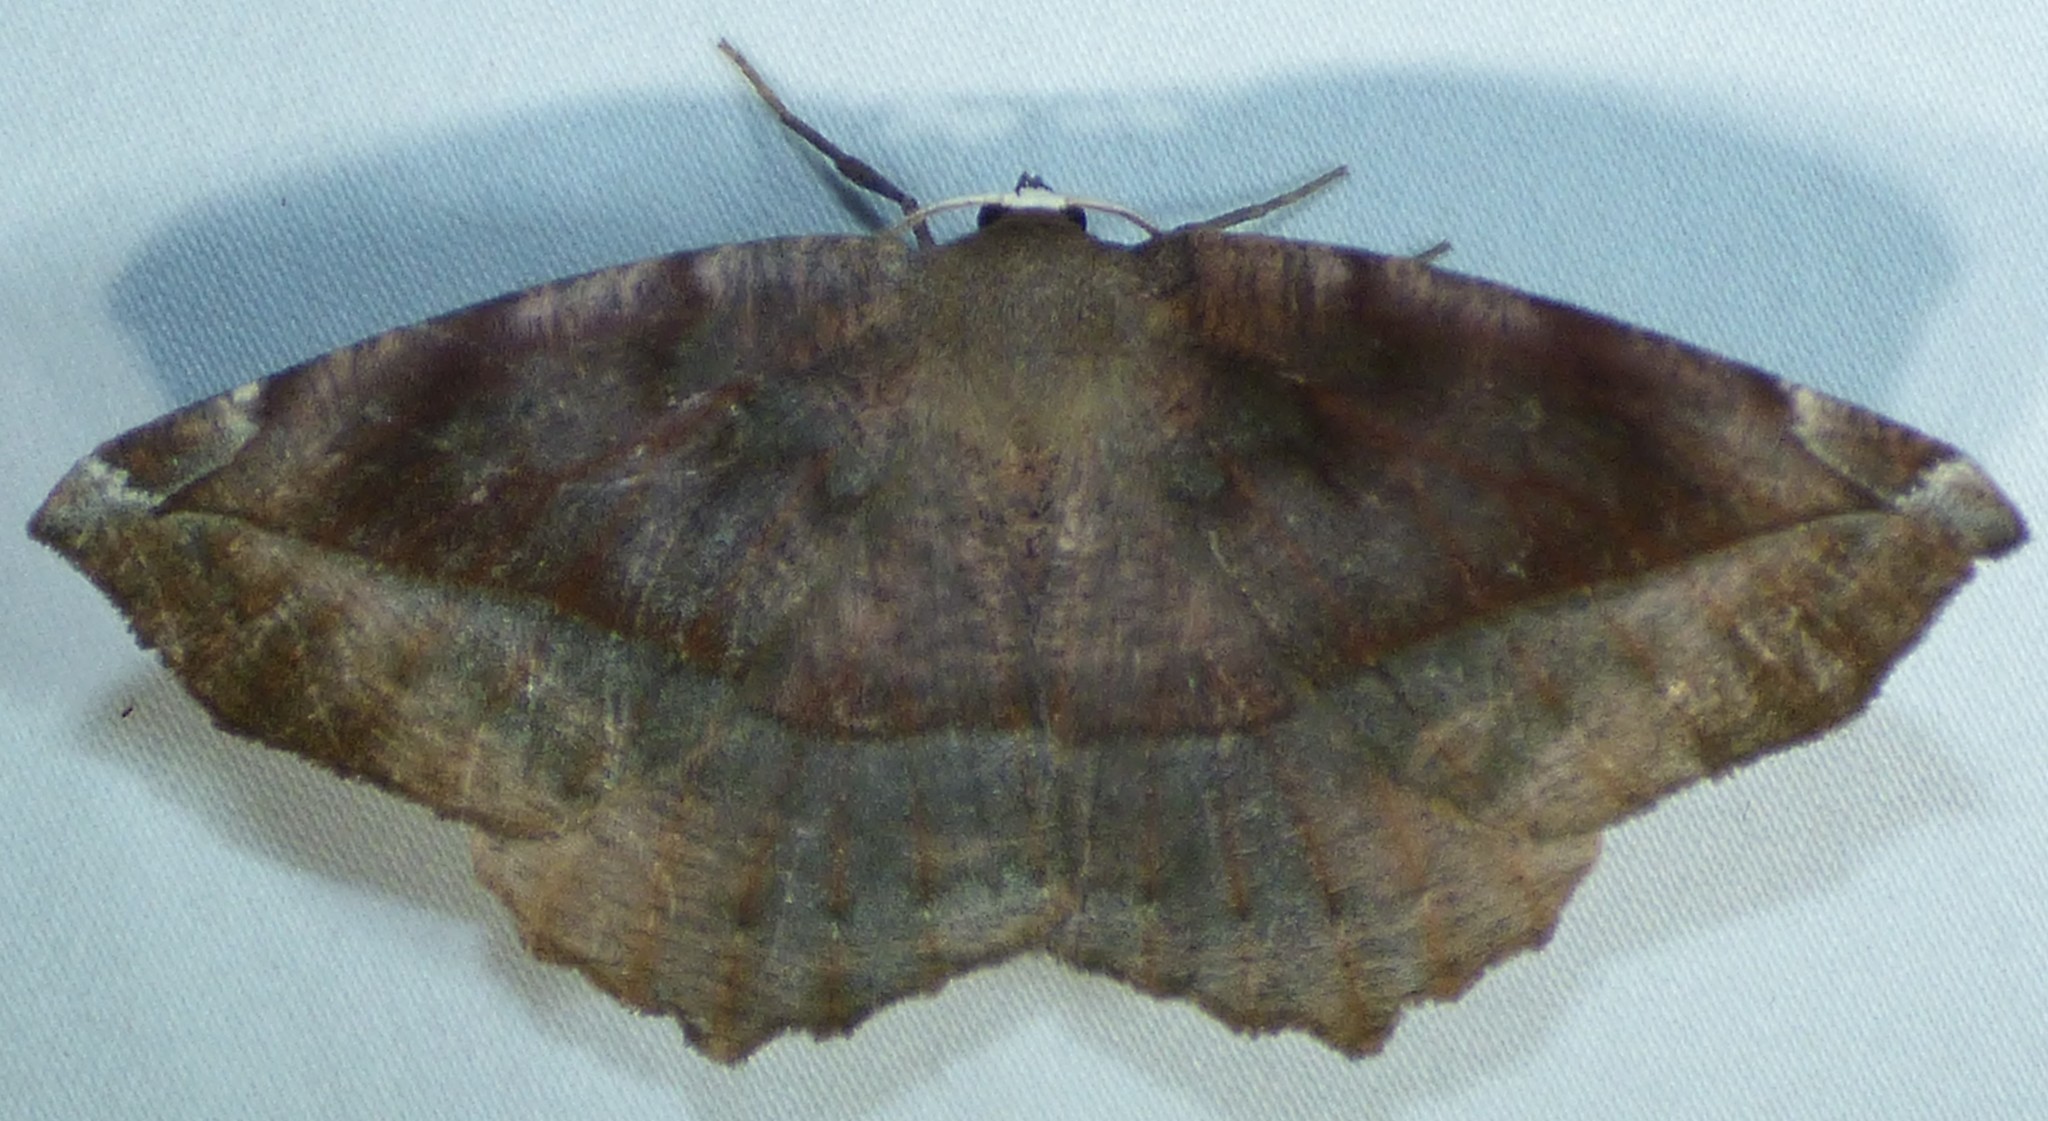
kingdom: Animalia
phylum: Arthropoda
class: Insecta
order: Lepidoptera
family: Geometridae
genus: Eutrapela
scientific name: Eutrapela clemataria
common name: Curved-toothed geometer
